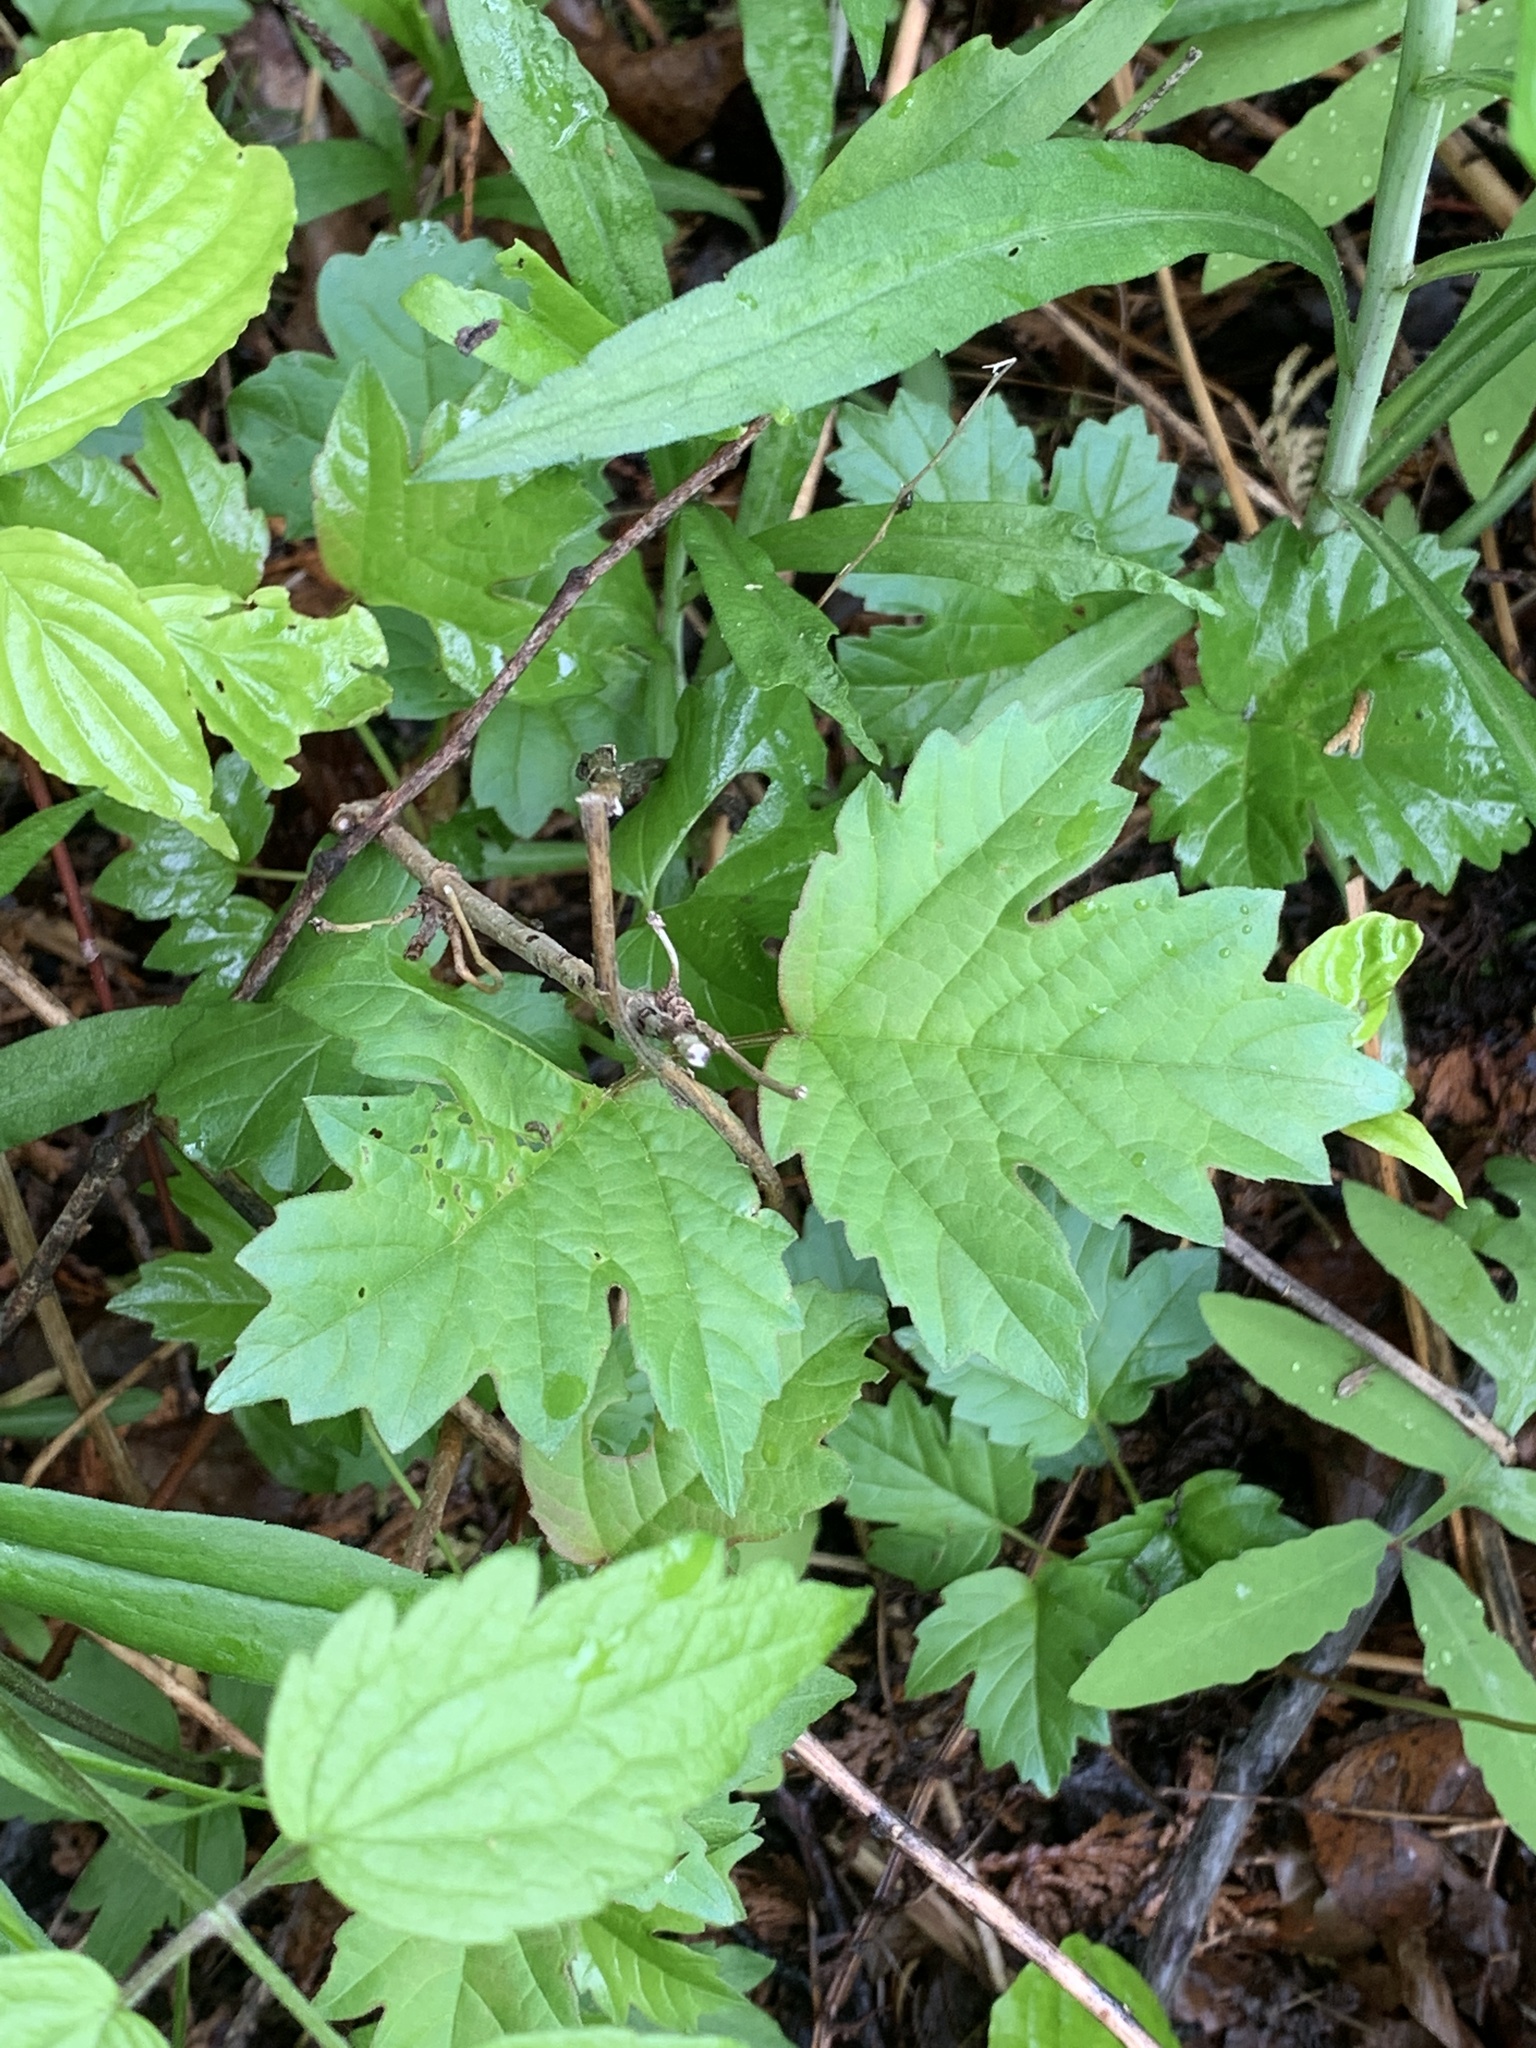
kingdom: Plantae
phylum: Tracheophyta
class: Magnoliopsida
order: Dipsacales
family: Viburnaceae
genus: Viburnum
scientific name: Viburnum opulus
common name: Guelder-rose
